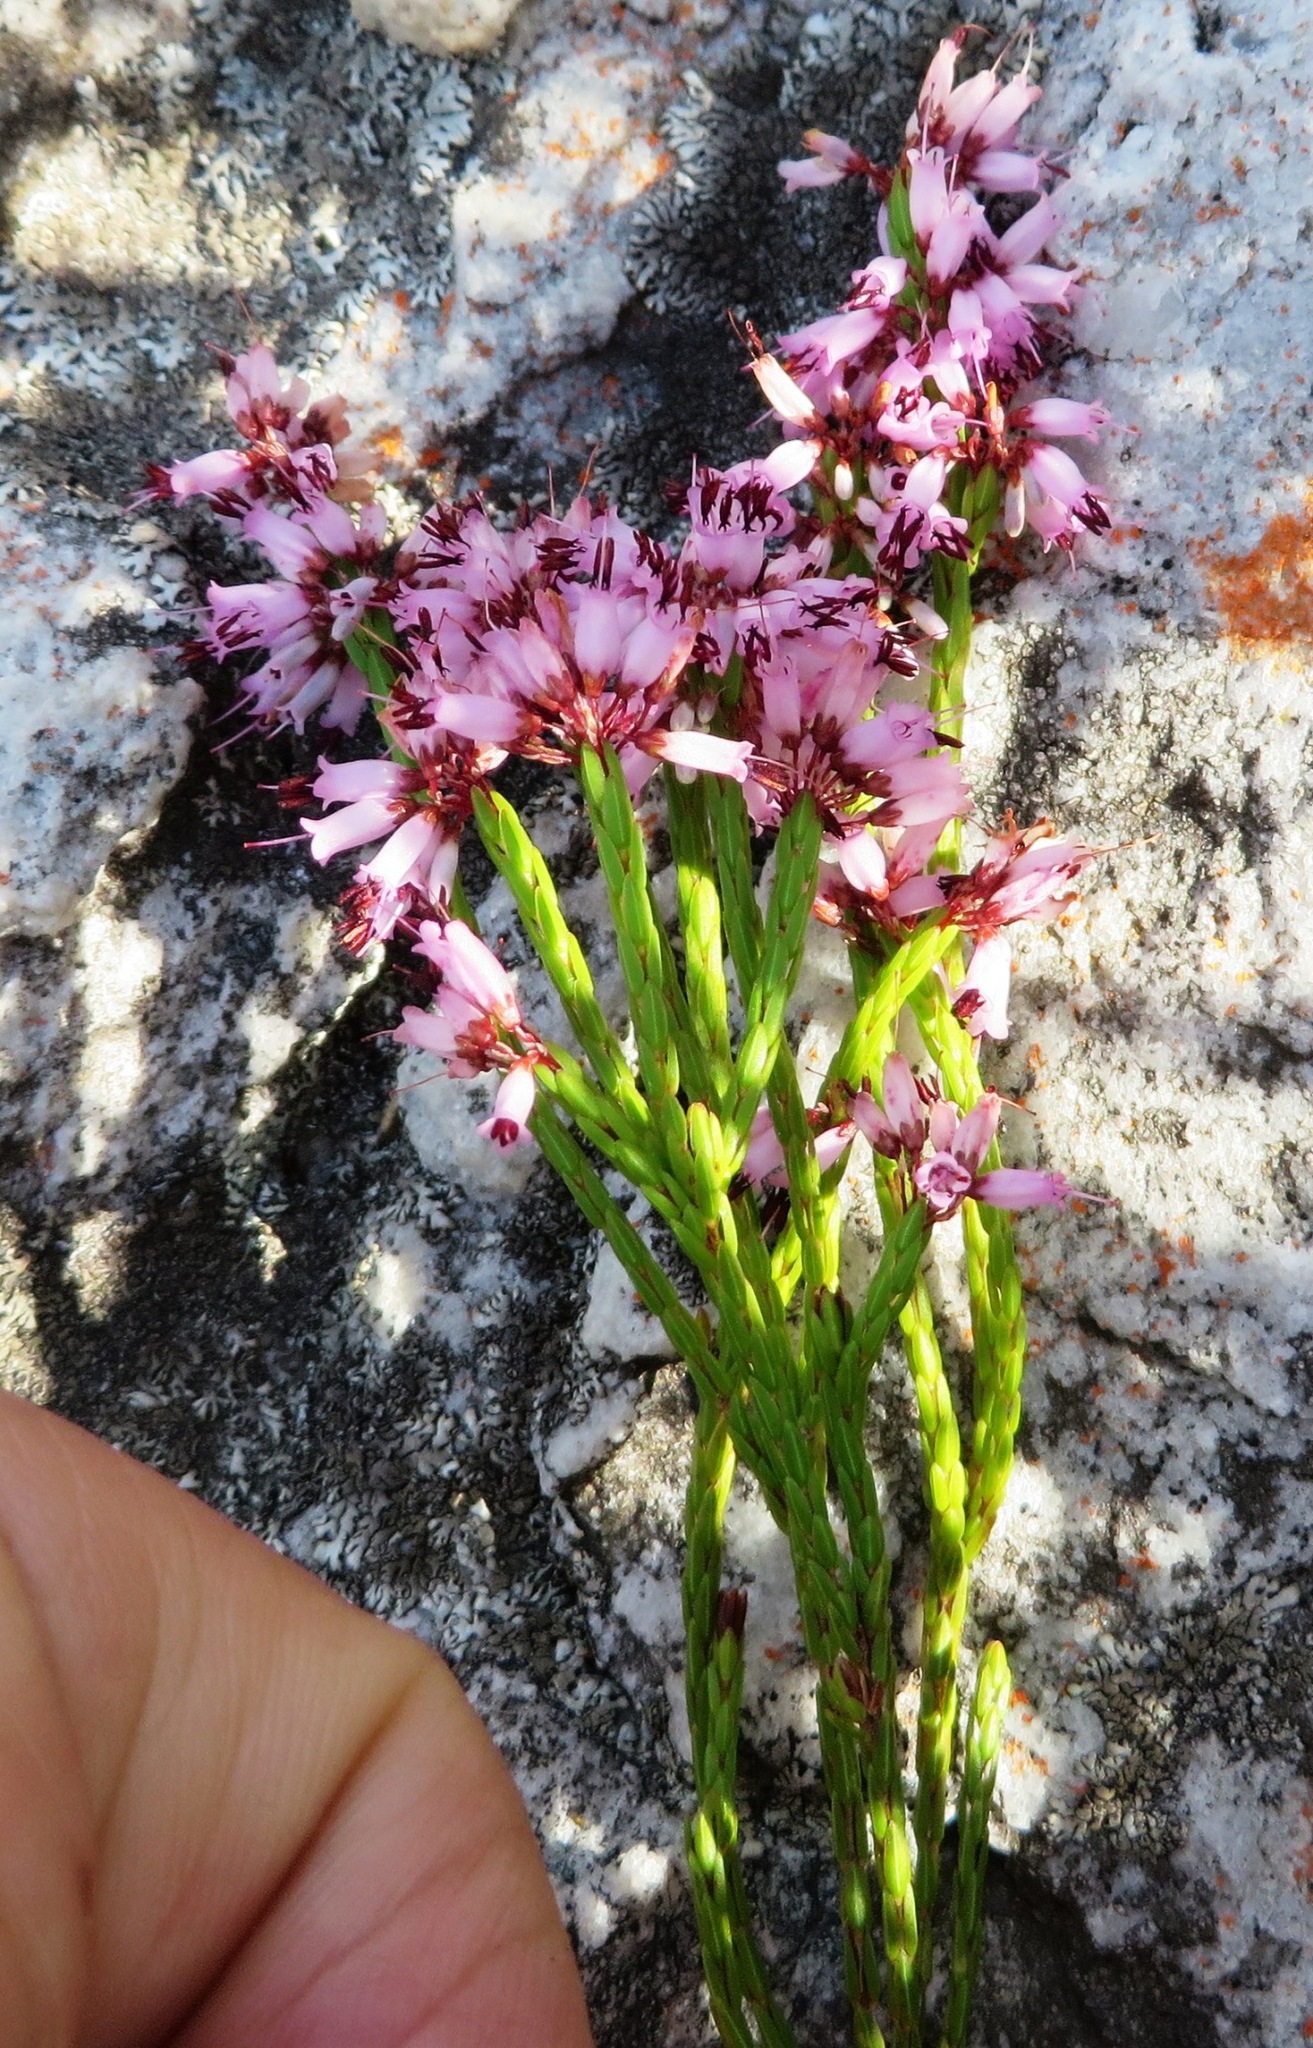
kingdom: Plantae
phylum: Tracheophyta
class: Magnoliopsida
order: Ericales
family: Ericaceae
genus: Erica
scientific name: Erica equisetifolia
